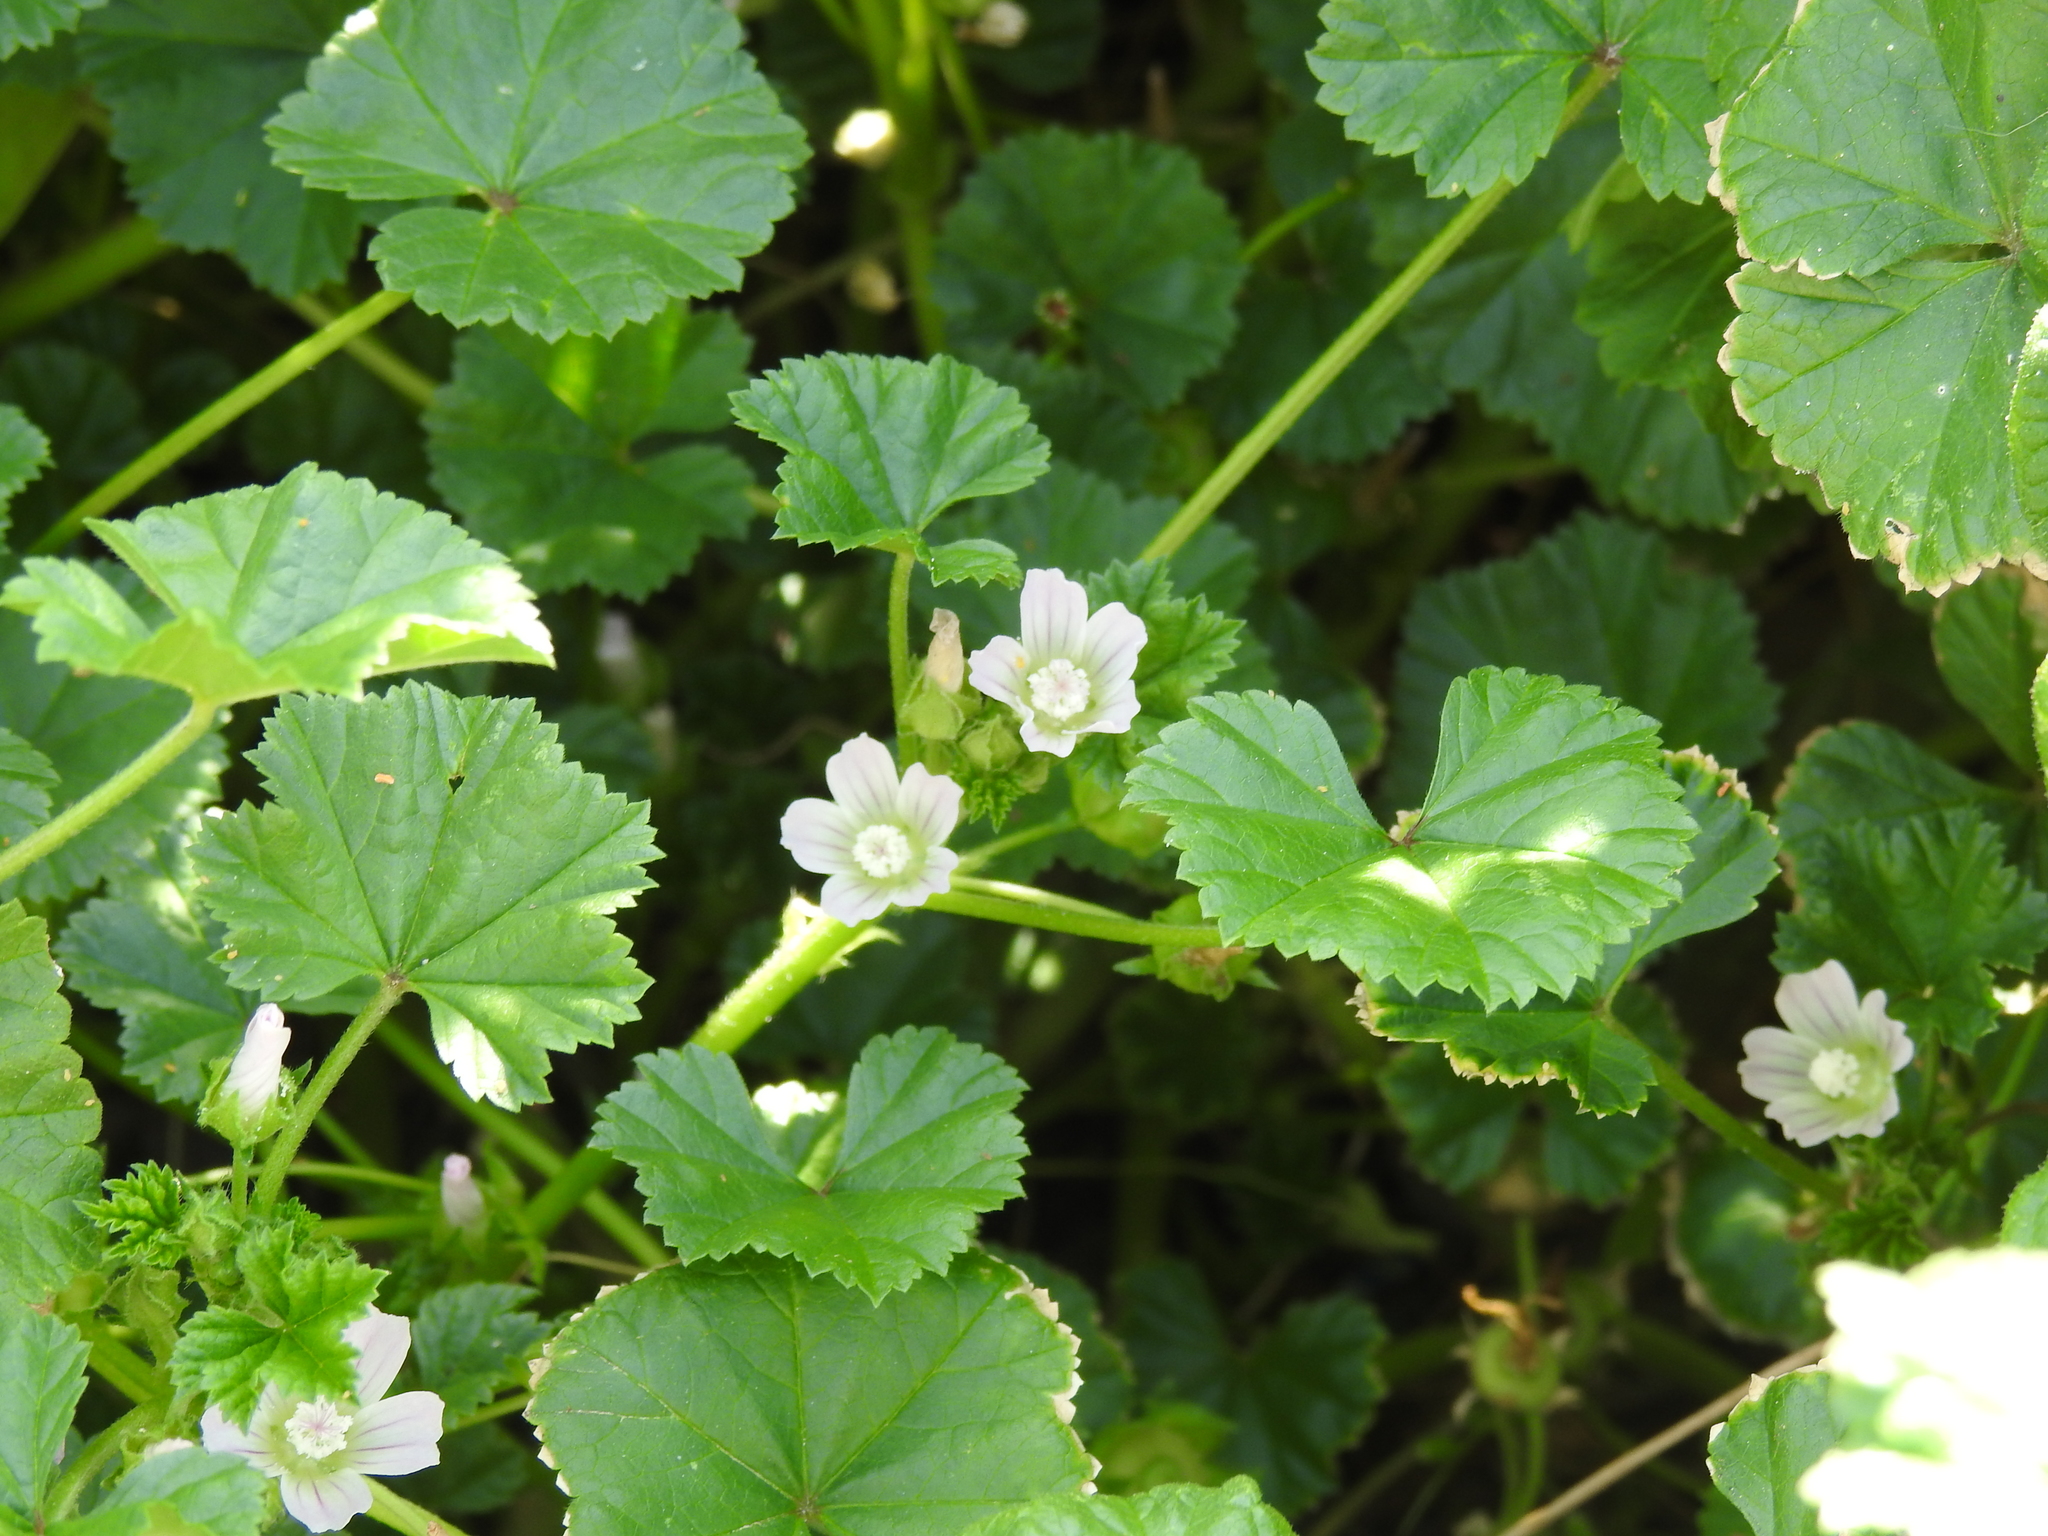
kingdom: Plantae
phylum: Tracheophyta
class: Magnoliopsida
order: Malvales
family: Malvaceae
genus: Malva
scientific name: Malva neglecta
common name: Common mallow
